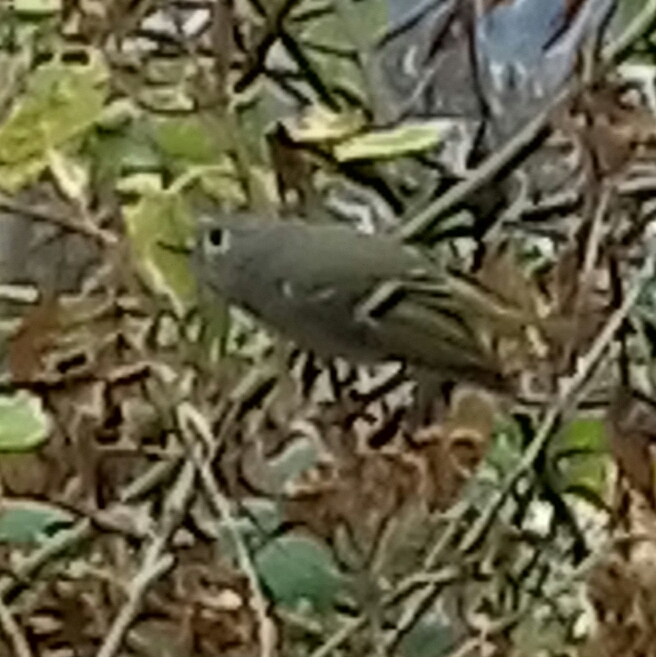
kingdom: Animalia
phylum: Chordata
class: Aves
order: Passeriformes
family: Regulidae
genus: Regulus
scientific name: Regulus calendula
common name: Ruby-crowned kinglet
